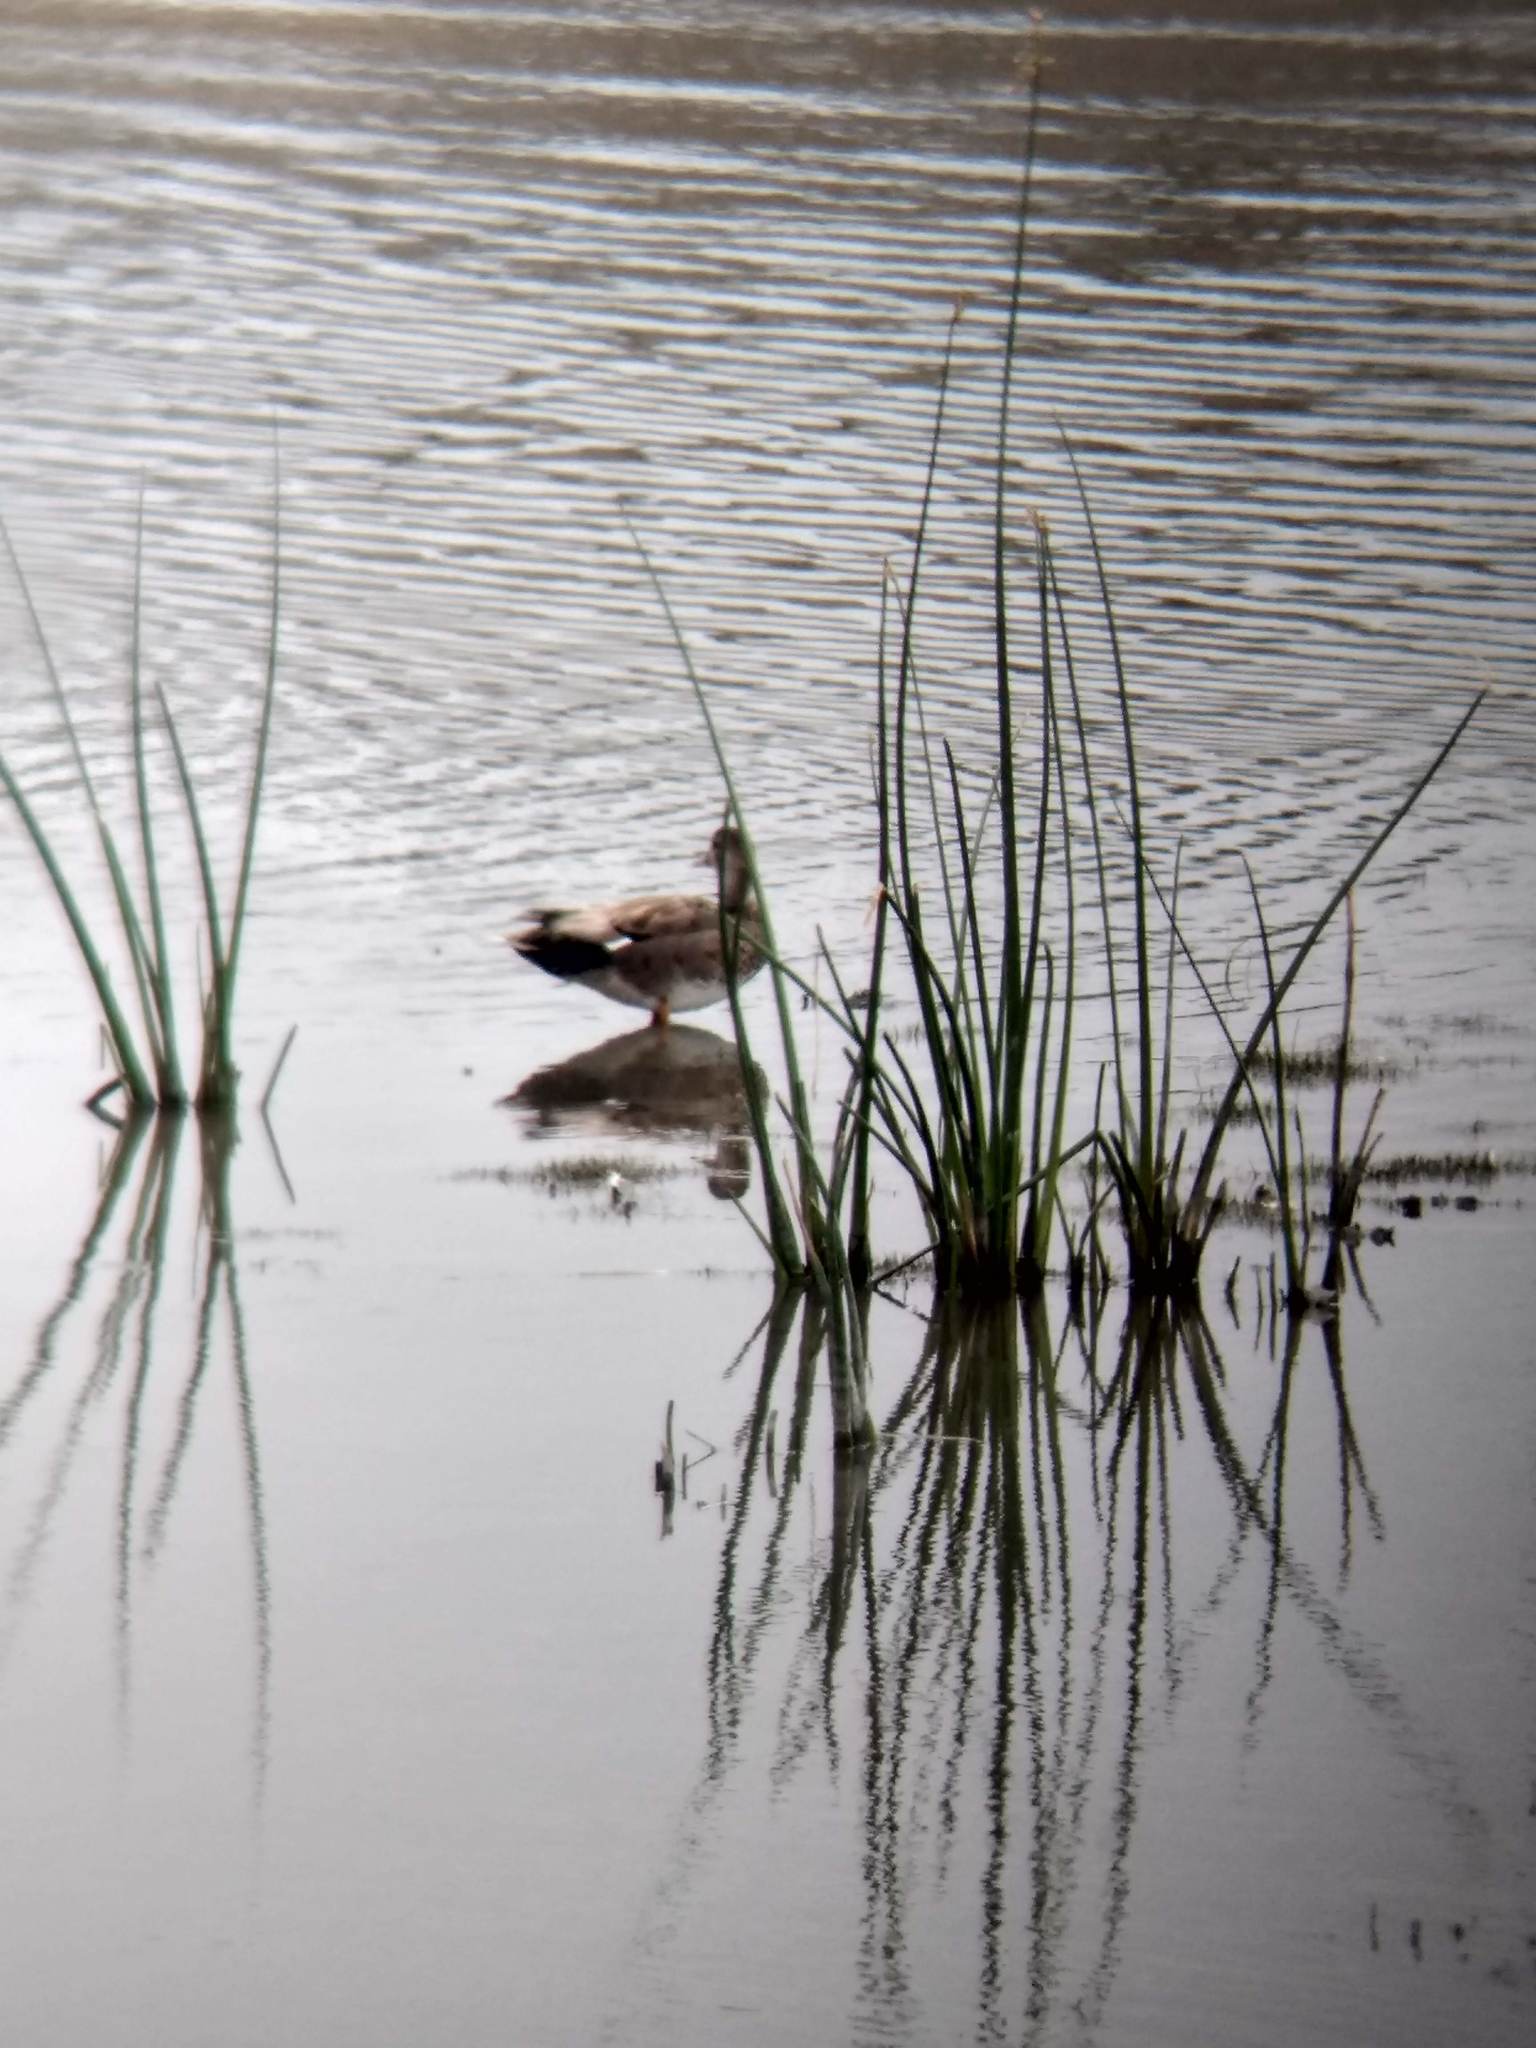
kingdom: Animalia
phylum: Chordata
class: Aves
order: Anseriformes
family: Anatidae
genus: Mareca
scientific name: Mareca strepera
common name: Gadwall
